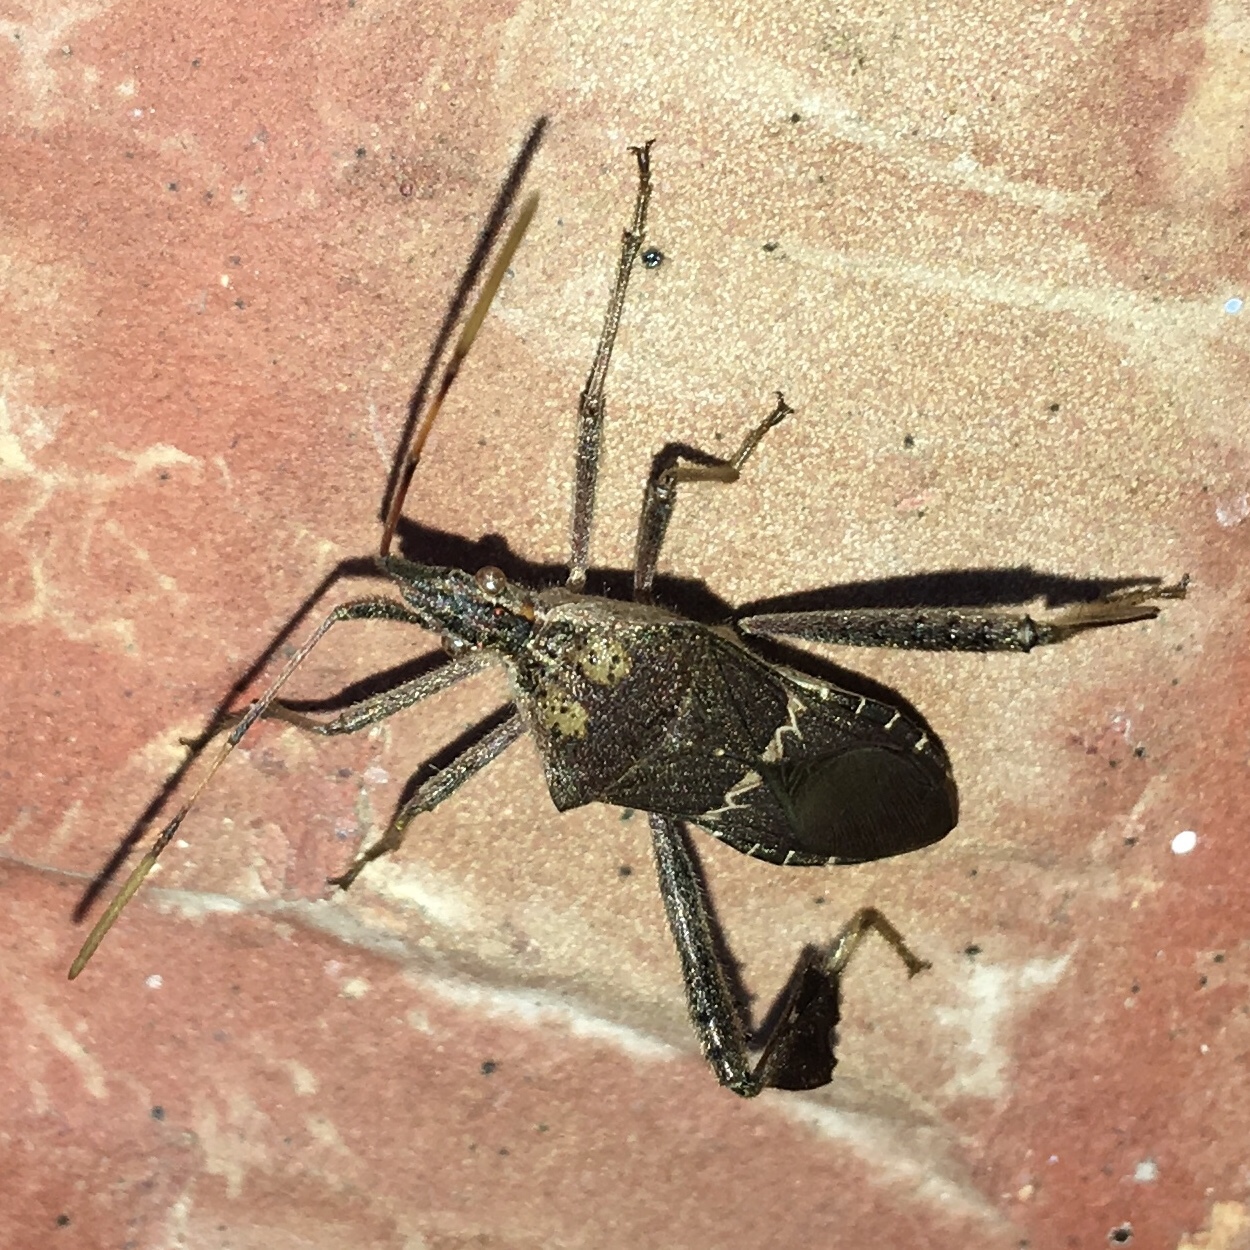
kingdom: Animalia
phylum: Arthropoda
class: Insecta
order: Hemiptera
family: Coreidae
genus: Leptoglossus
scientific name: Leptoglossus zonatus
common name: Large-legged bug
